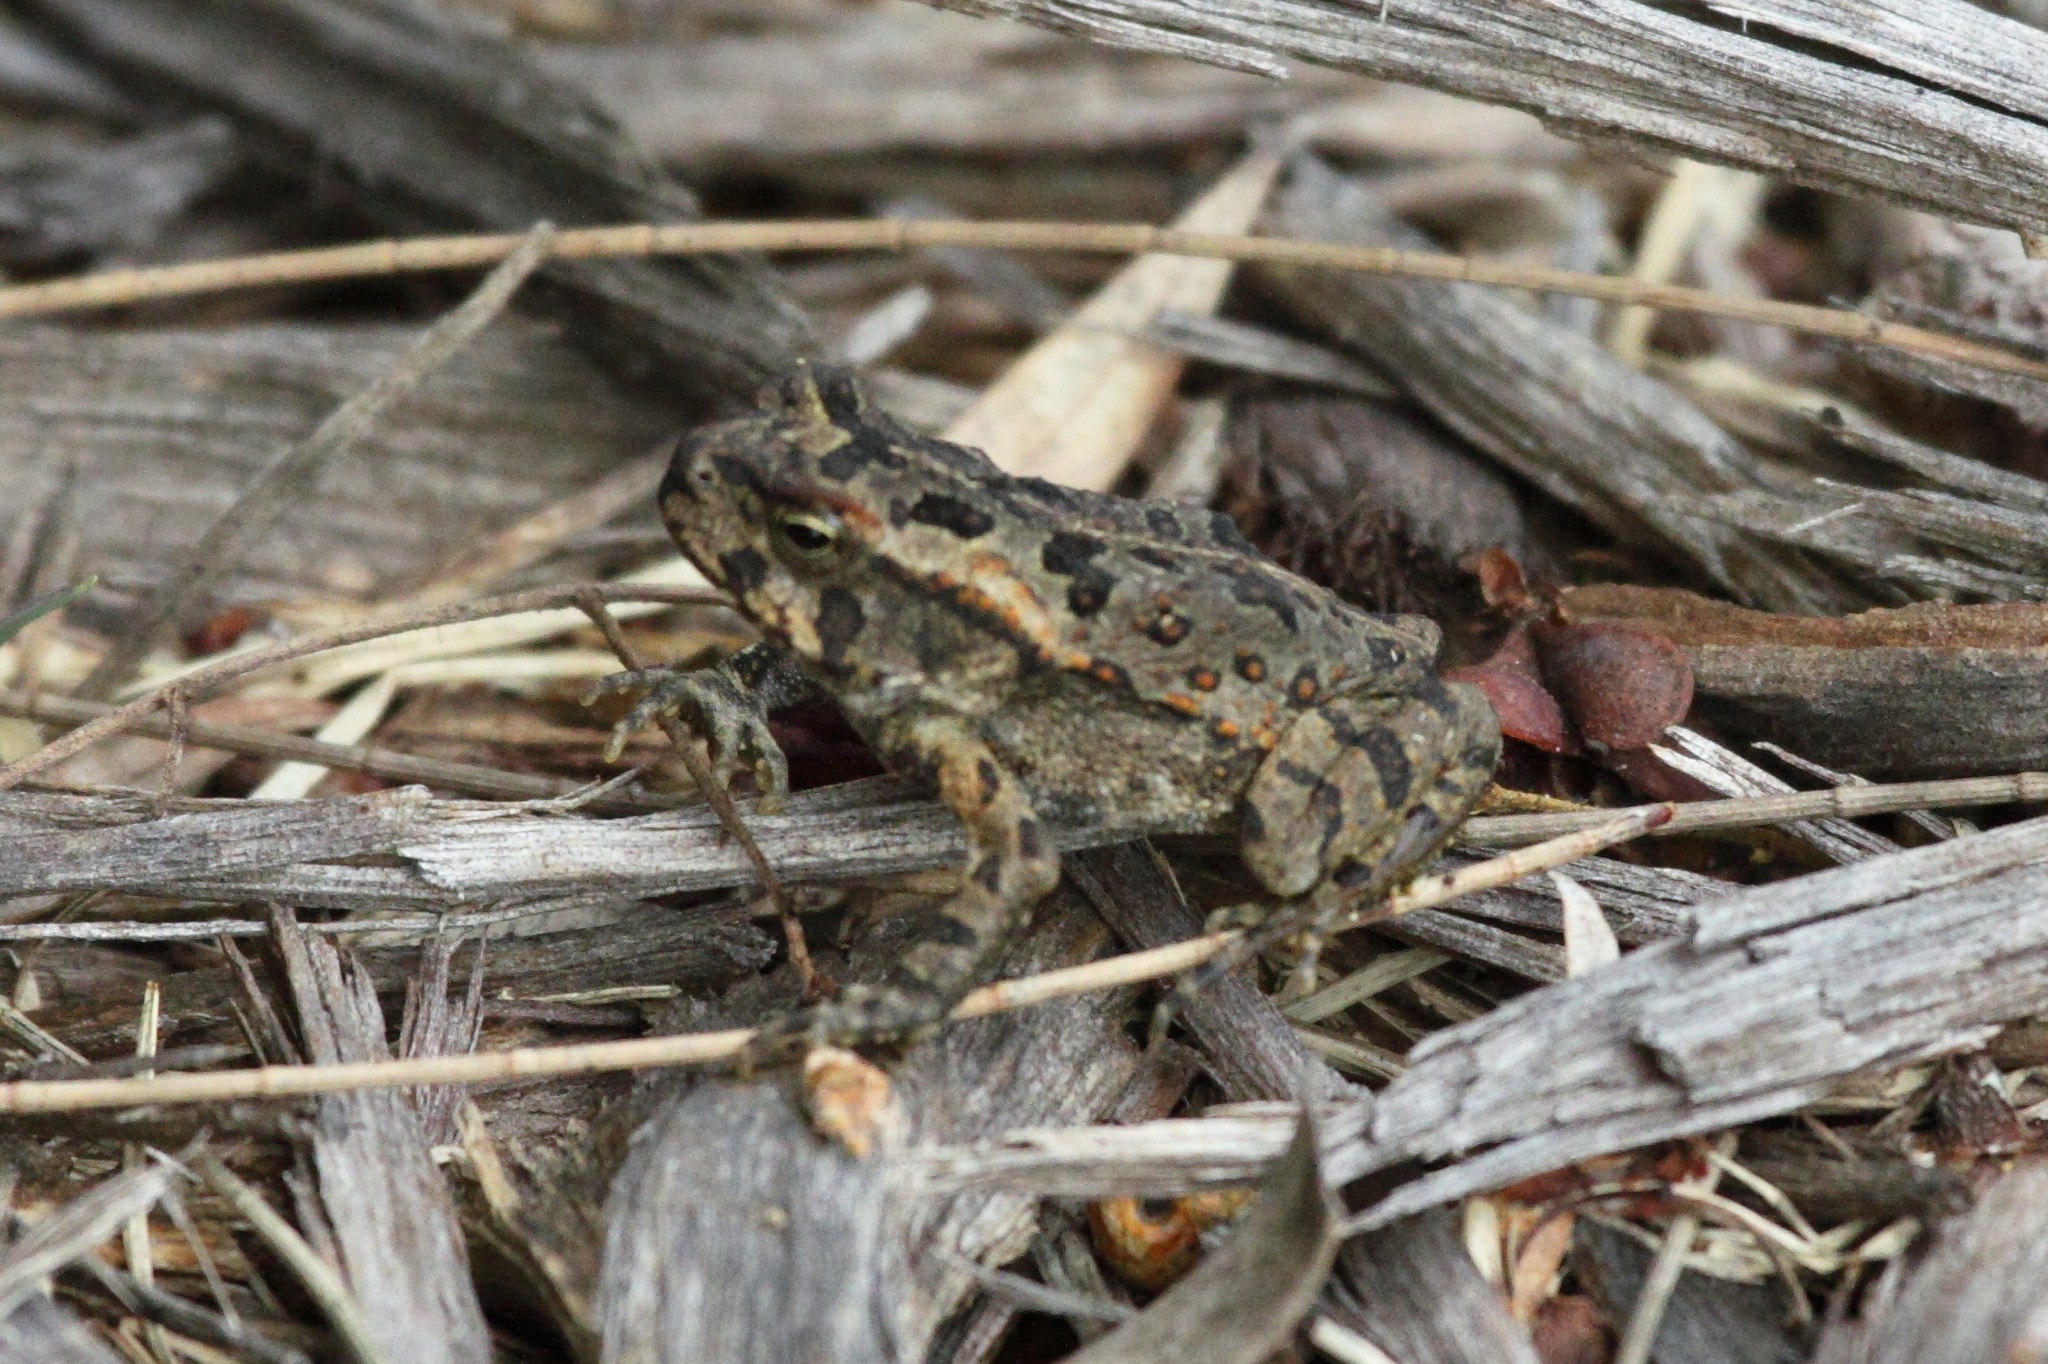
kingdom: Animalia
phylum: Chordata
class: Amphibia
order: Anura
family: Bufonidae
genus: Rhinella
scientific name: Rhinella marina
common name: Cane toad
